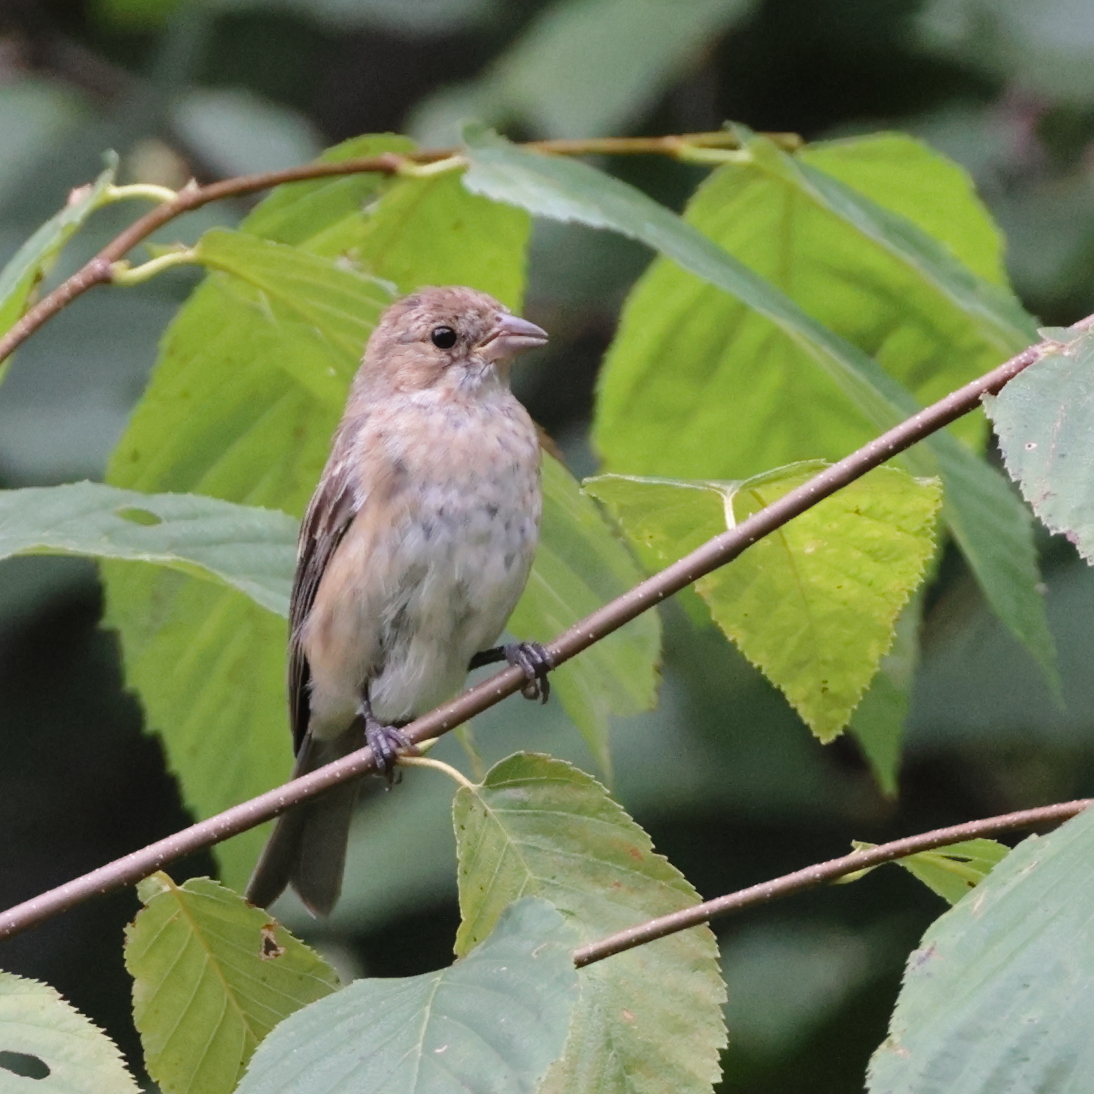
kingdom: Animalia
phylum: Chordata
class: Aves
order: Passeriformes
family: Cardinalidae
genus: Passerina
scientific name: Passerina cyanea
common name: Indigo bunting
